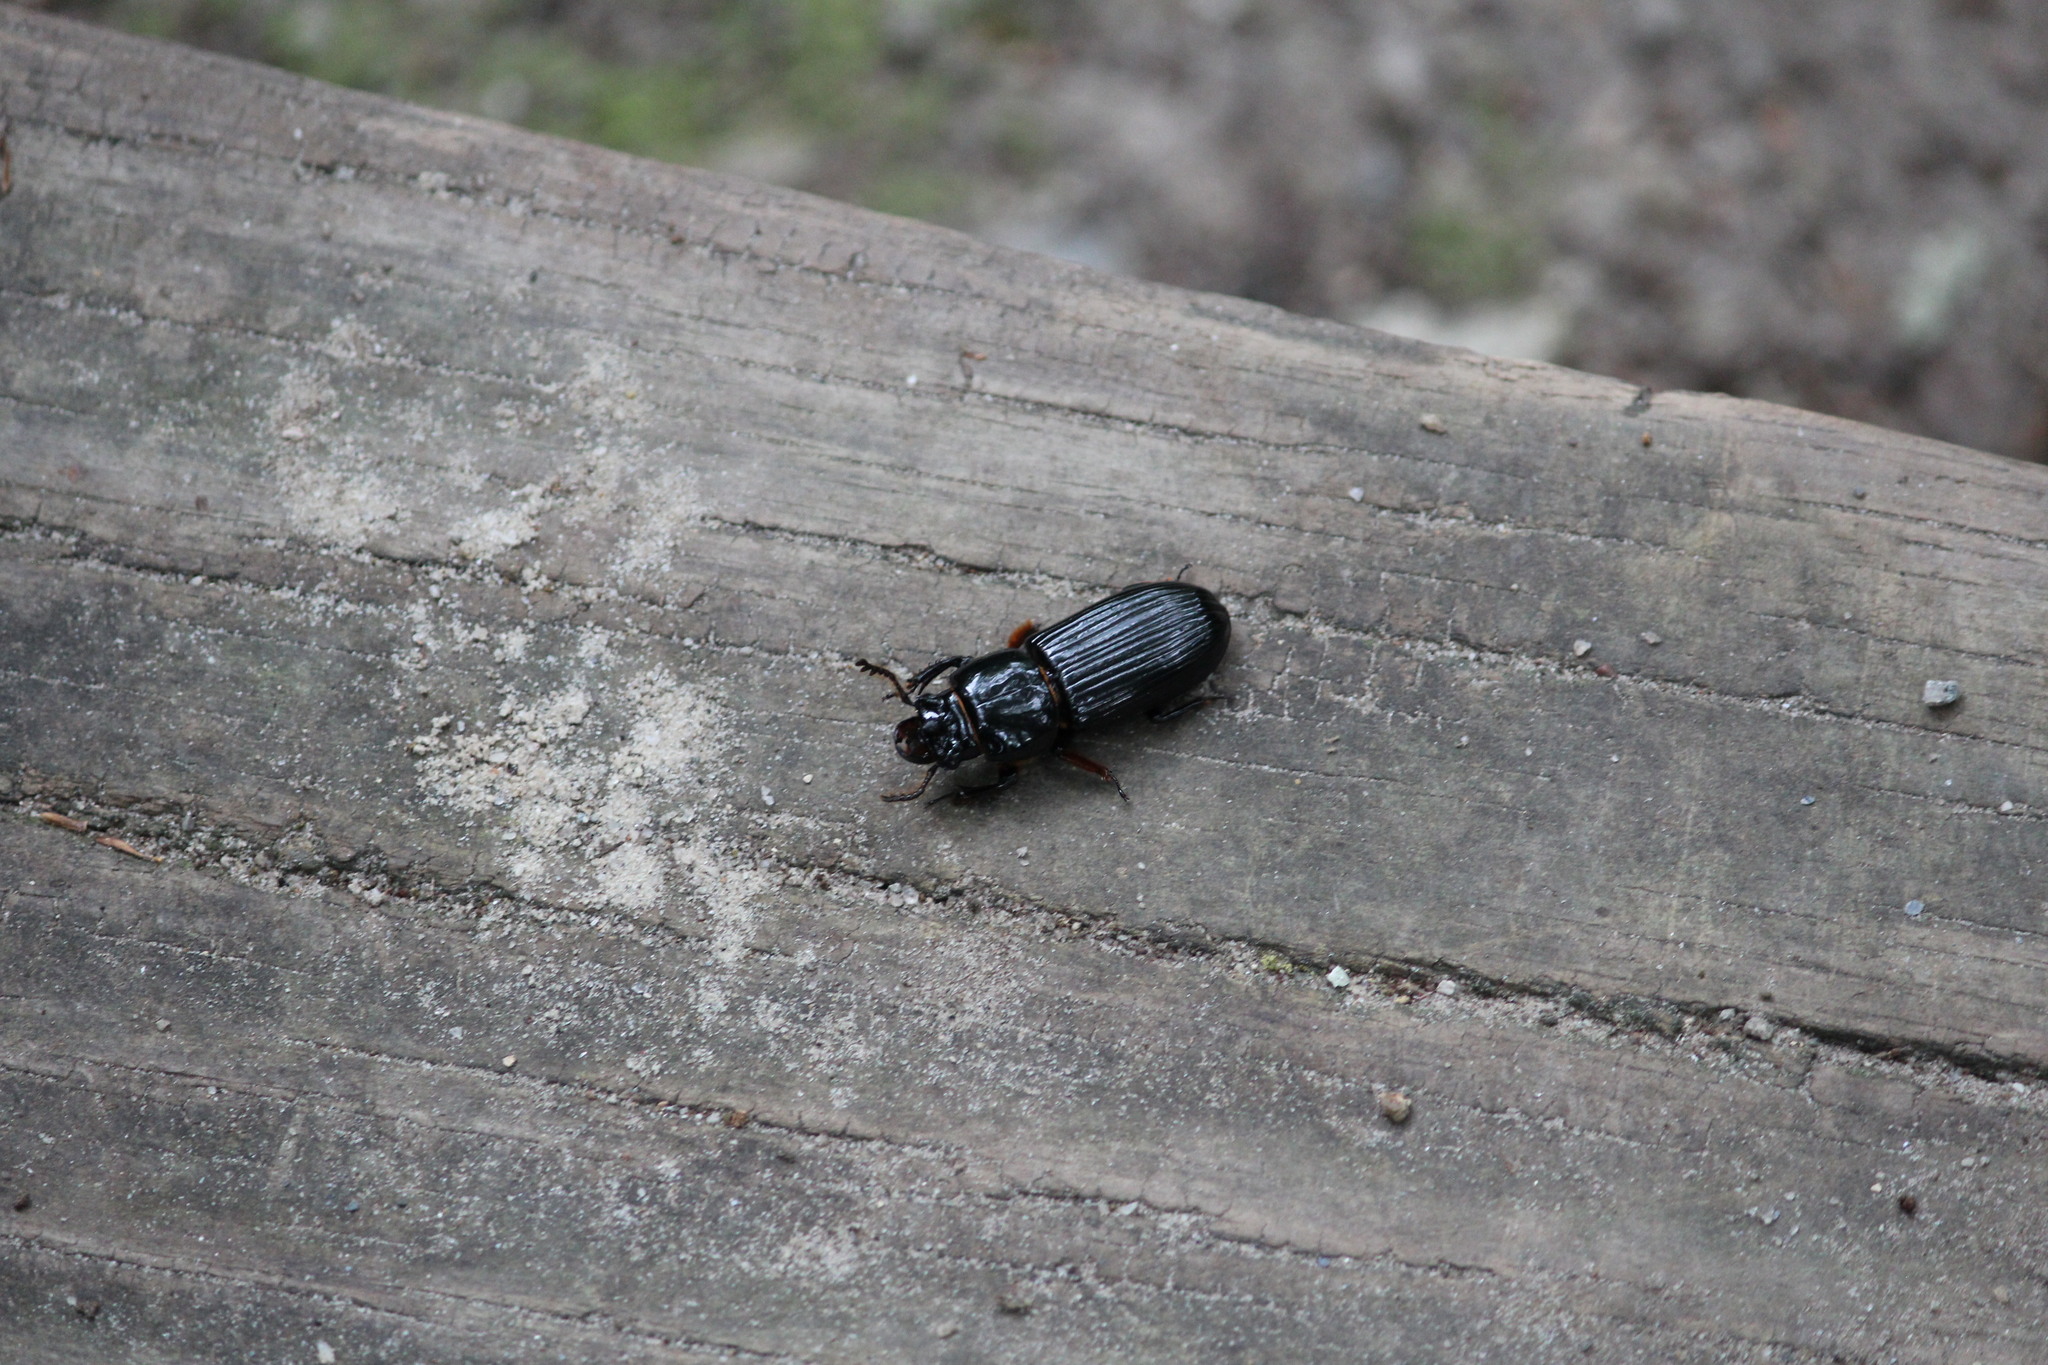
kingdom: Animalia
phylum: Arthropoda
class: Insecta
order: Coleoptera
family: Passalidae
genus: Odontotaenius
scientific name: Odontotaenius disjunctus
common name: Patent leather beetle
